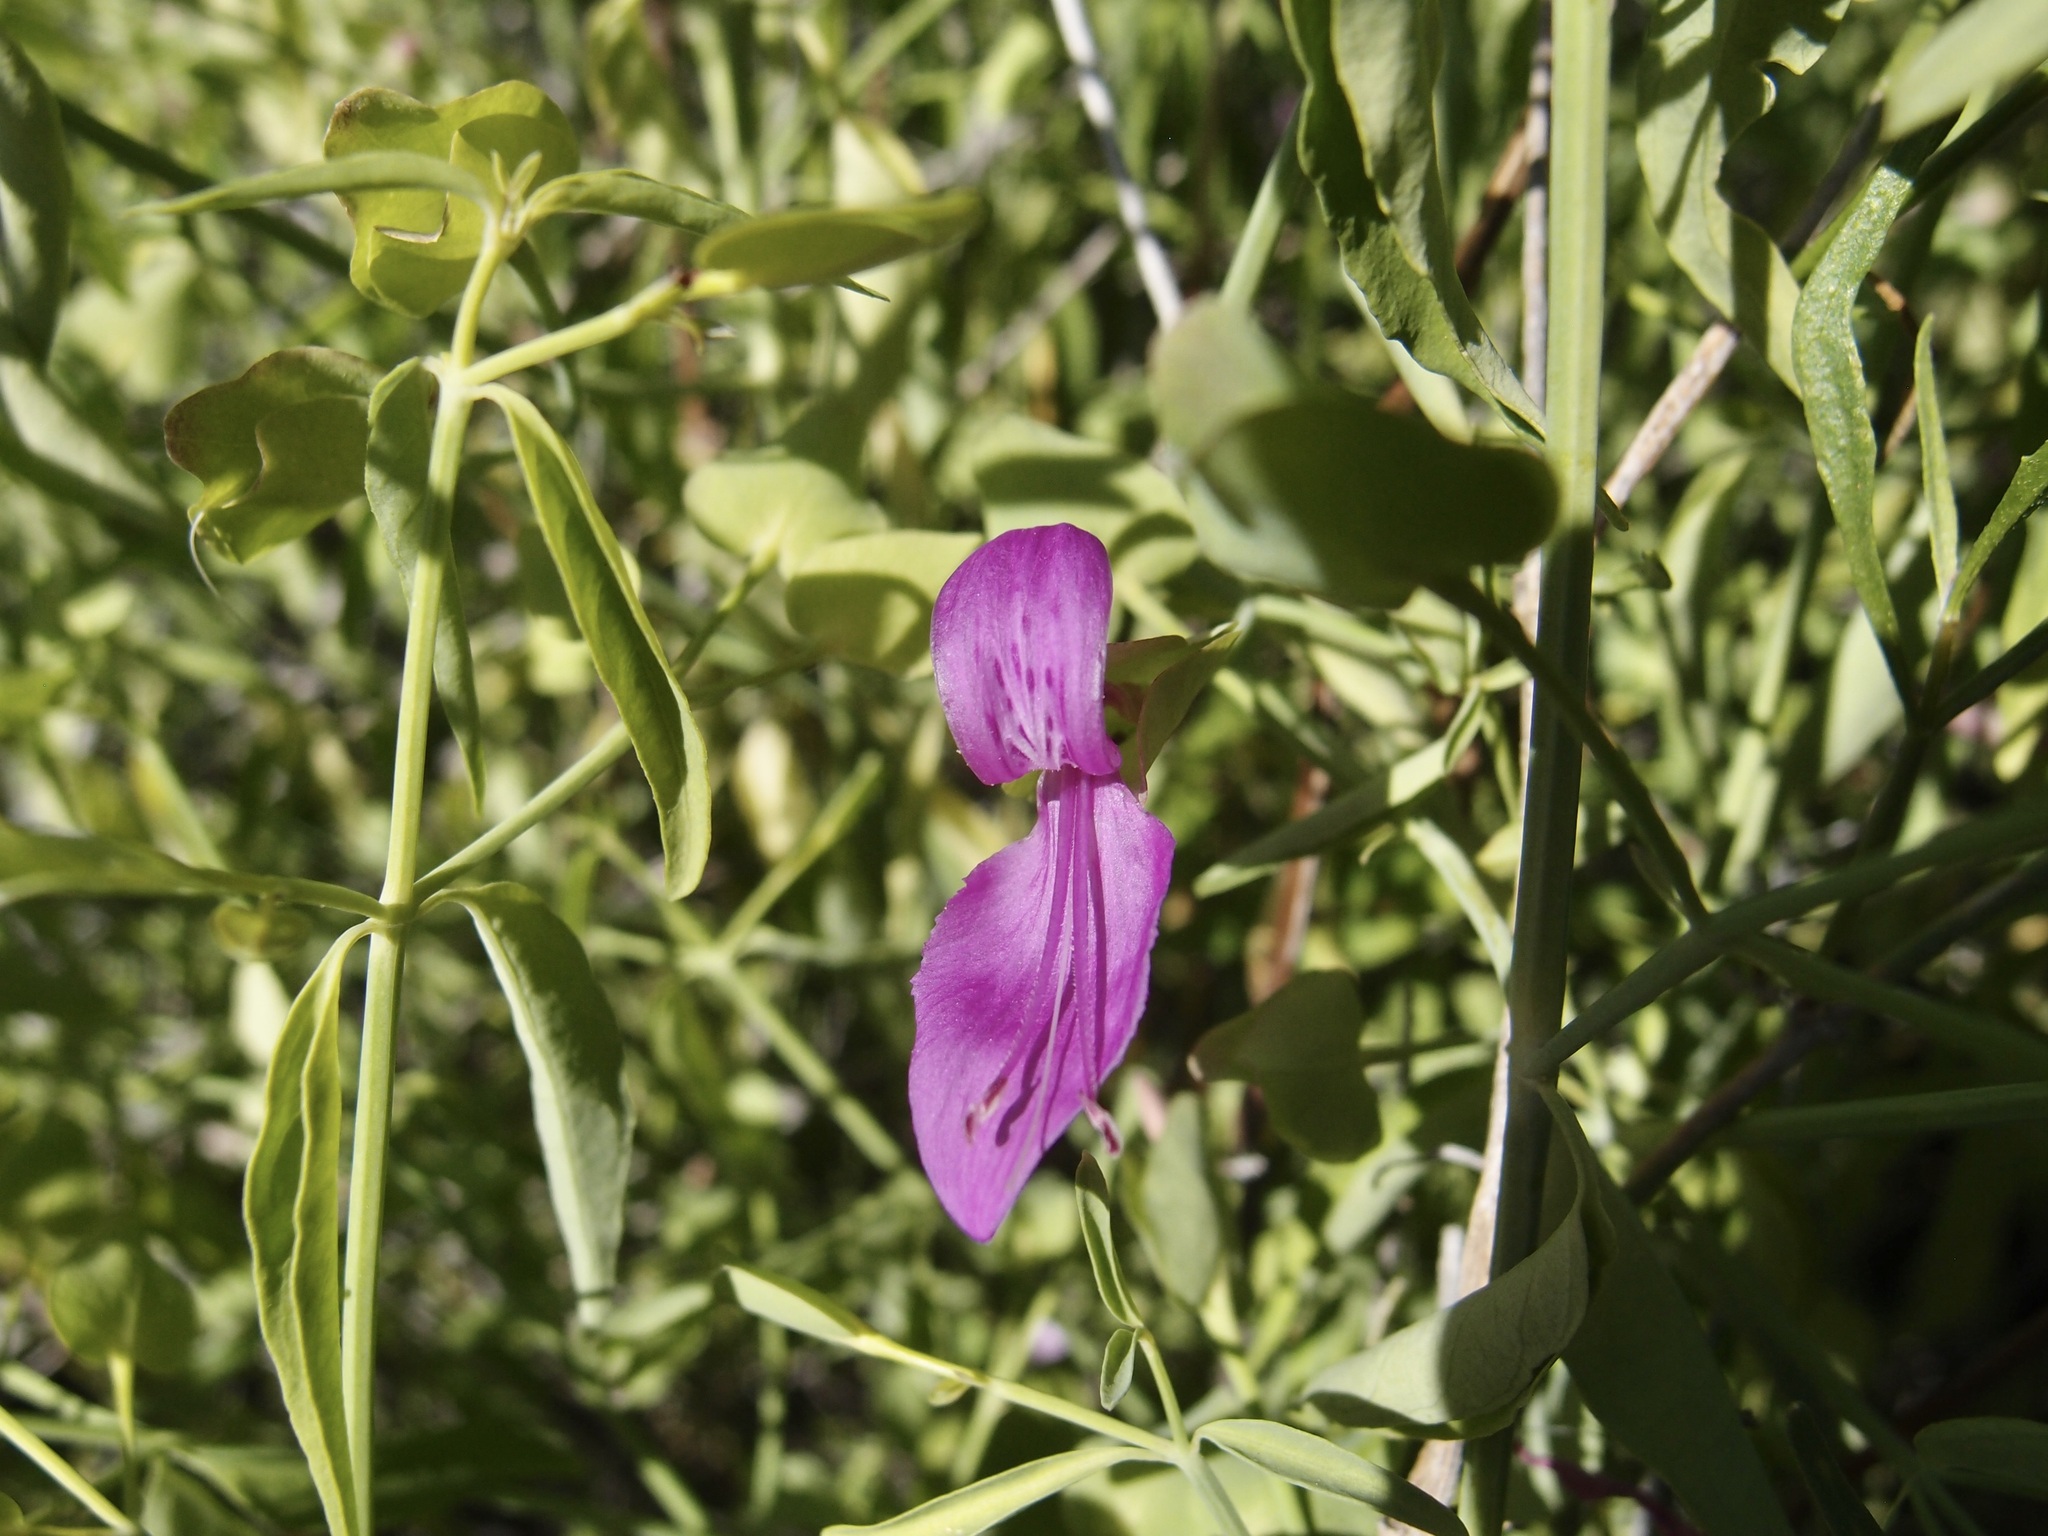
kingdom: Plantae
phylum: Tracheophyta
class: Magnoliopsida
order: Lamiales
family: Acanthaceae
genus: Dicliptera
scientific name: Dicliptera resupinata
